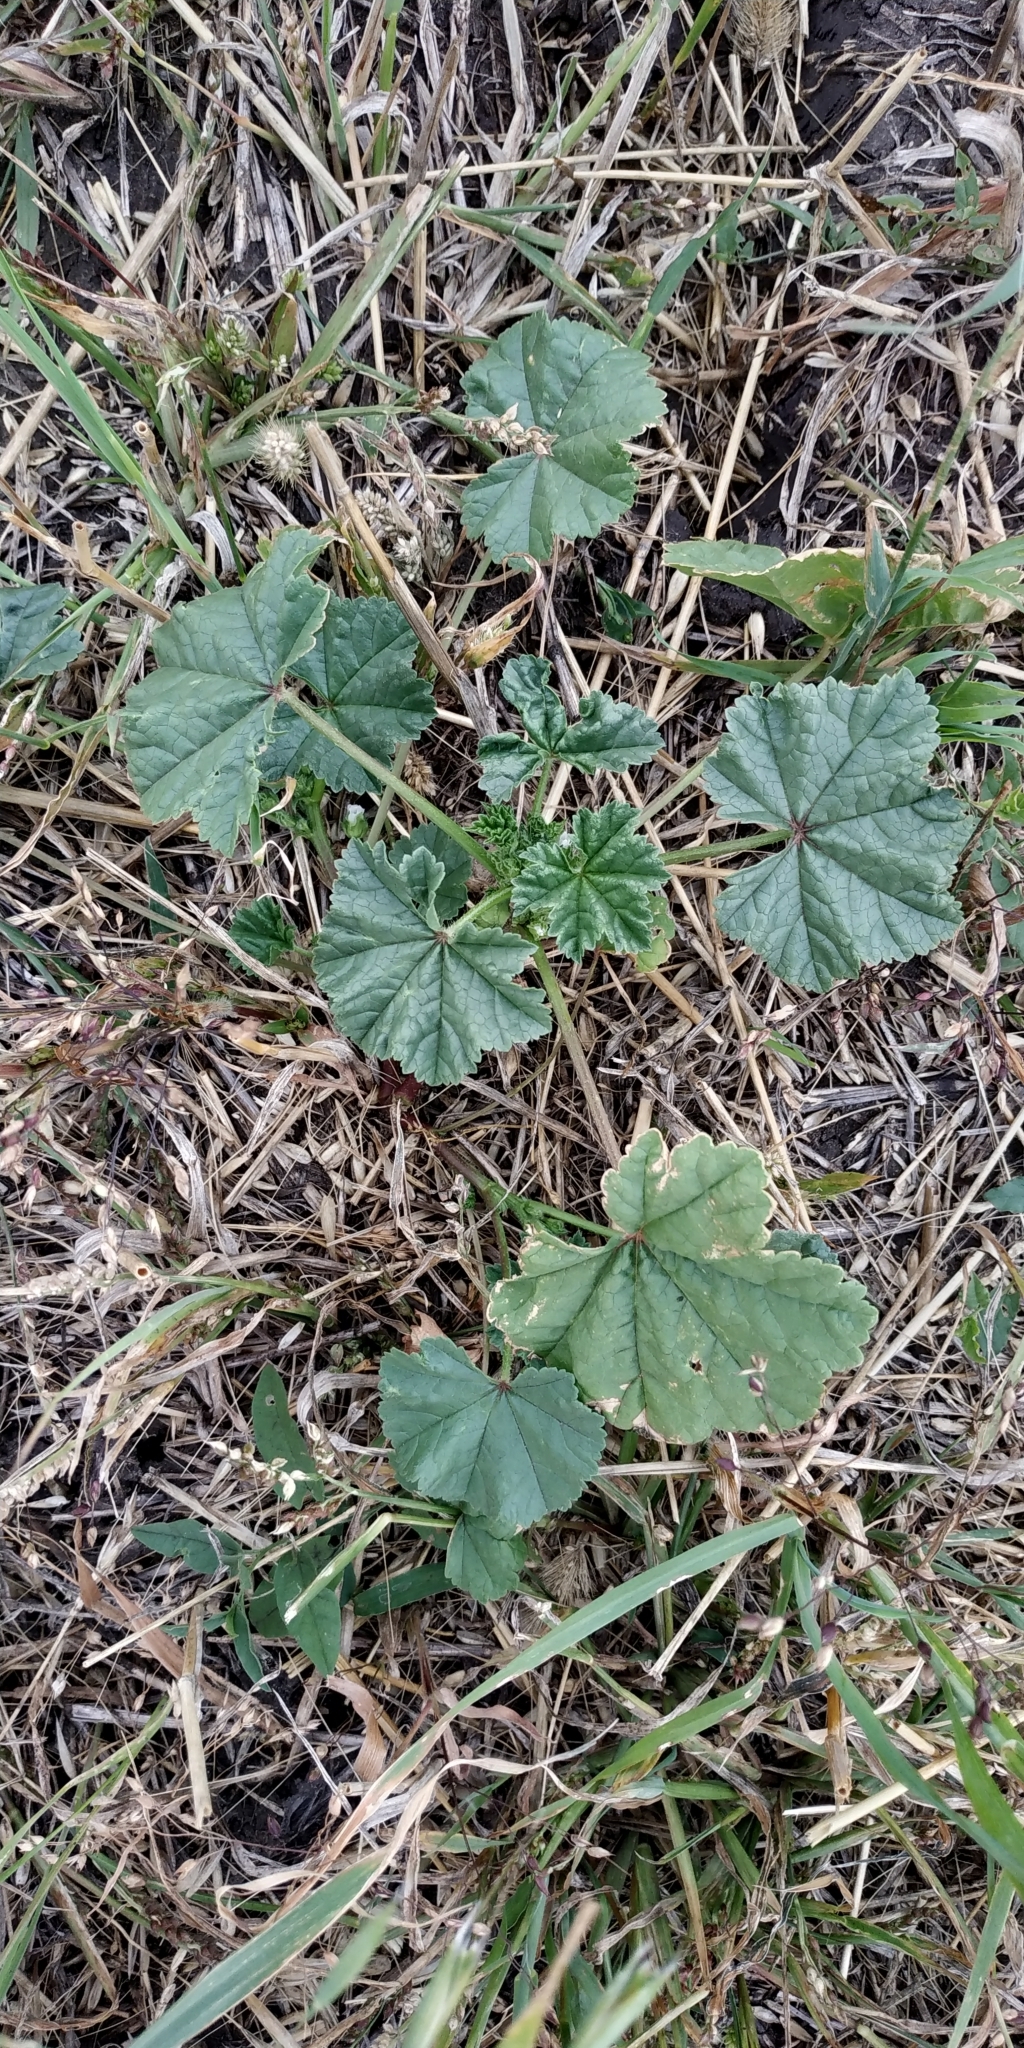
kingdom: Plantae
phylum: Tracheophyta
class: Magnoliopsida
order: Malvales
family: Malvaceae
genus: Malva
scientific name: Malva pusilla
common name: Small mallow
